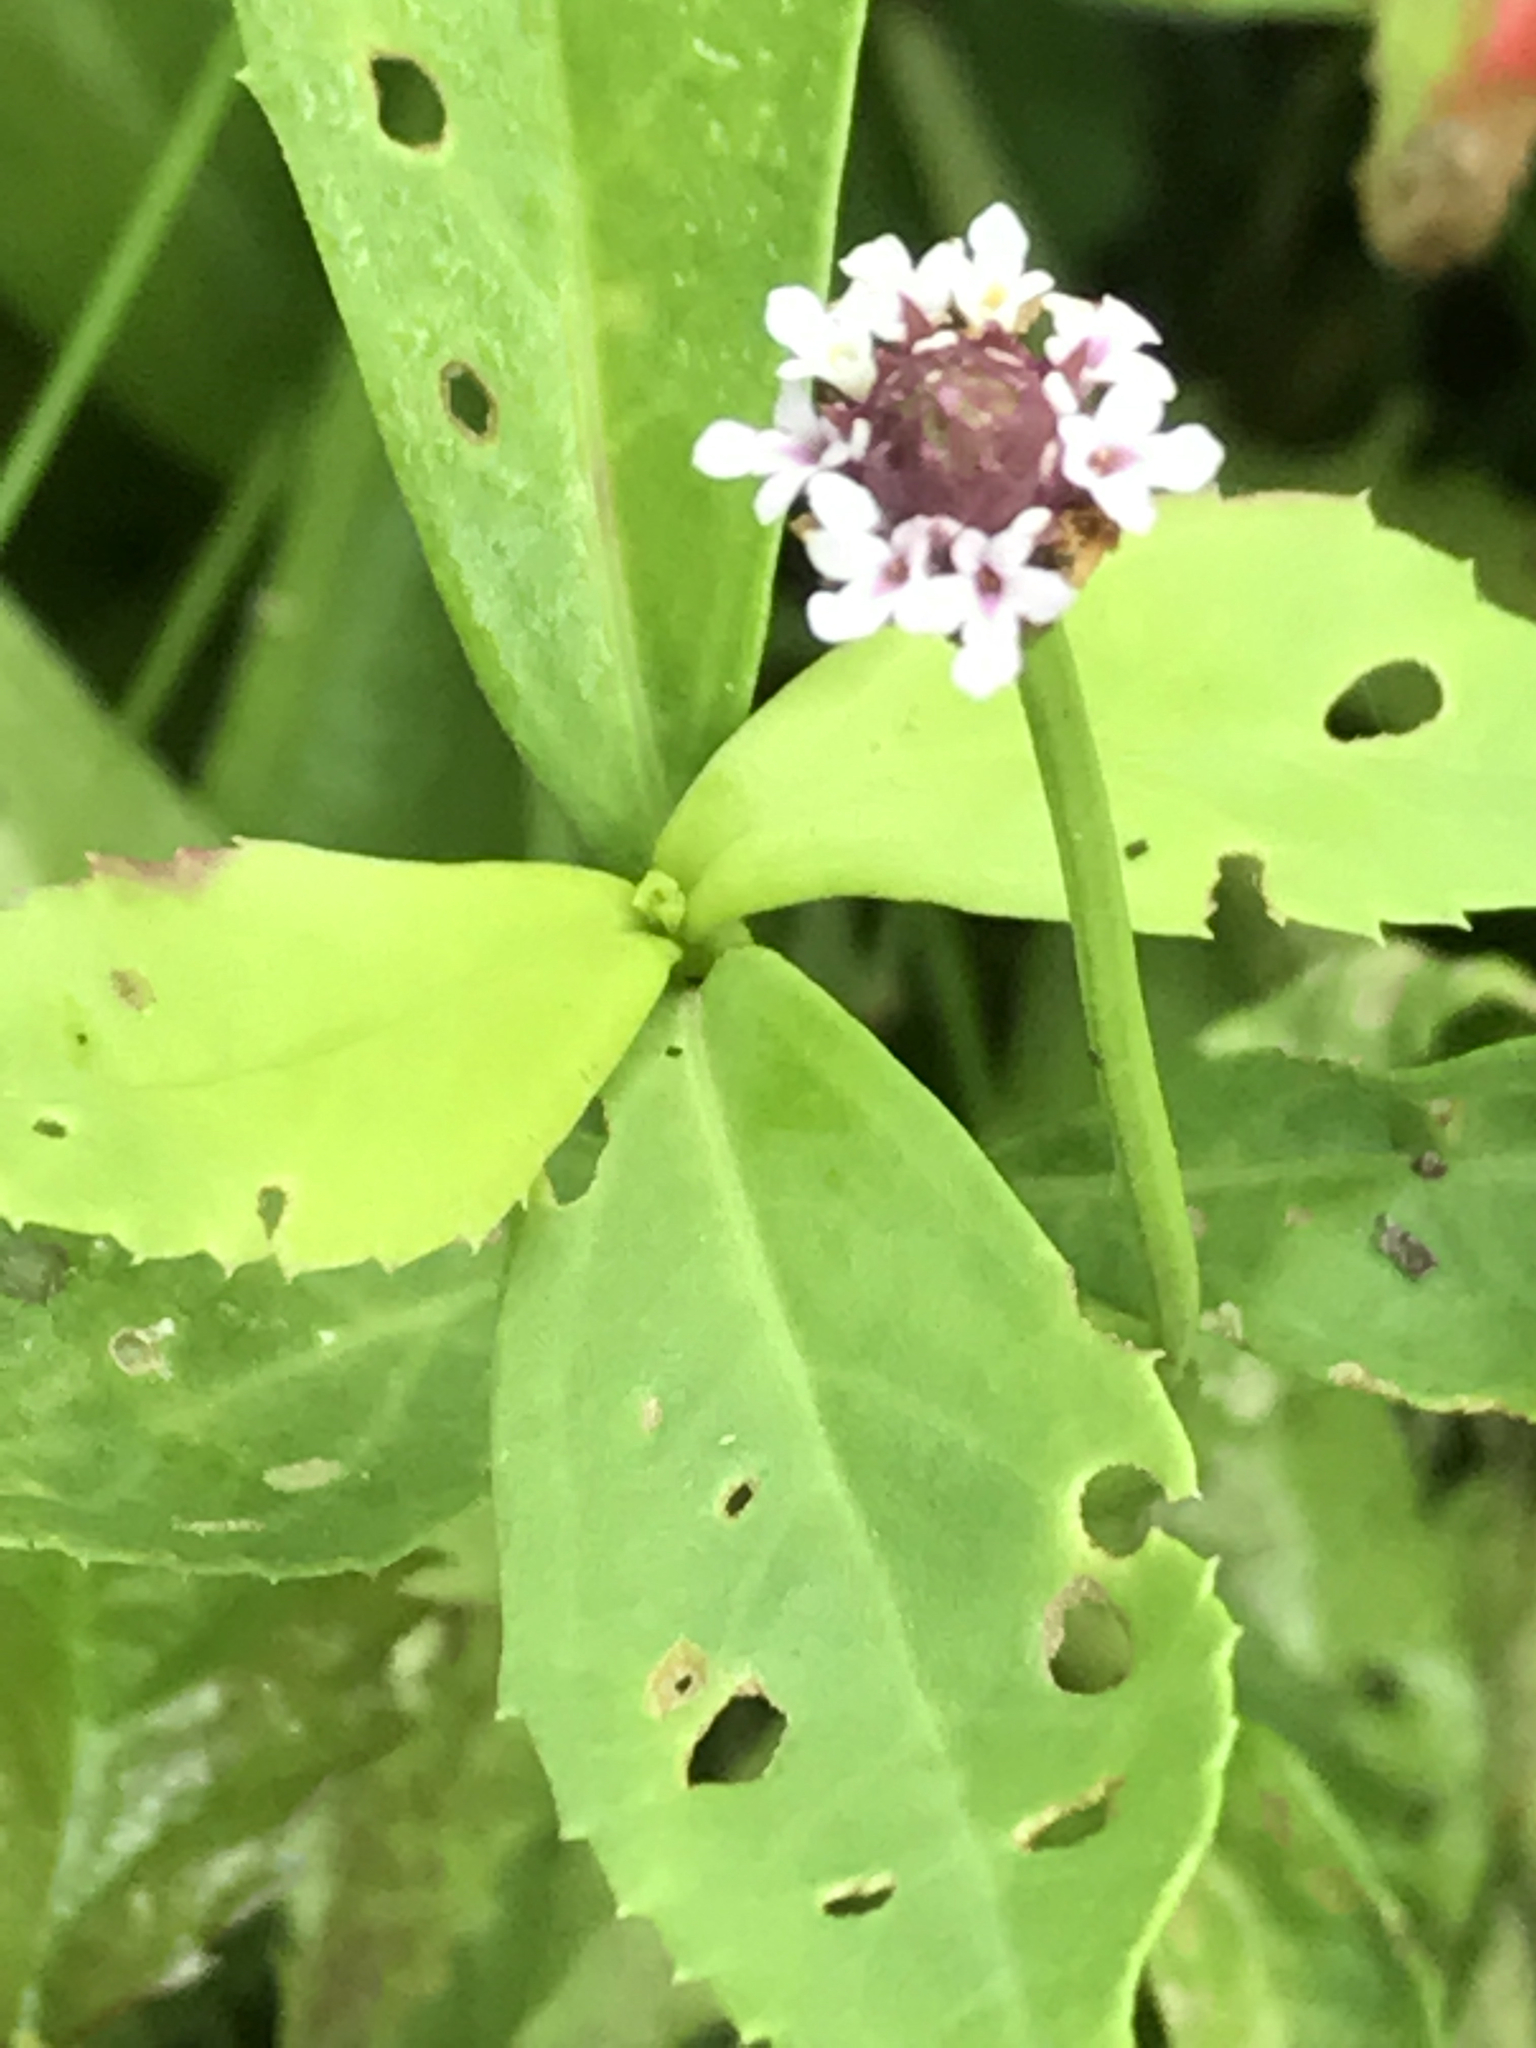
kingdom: Plantae
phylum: Tracheophyta
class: Magnoliopsida
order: Lamiales
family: Verbenaceae
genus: Phyla
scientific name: Phyla nodiflora
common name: Frogfruit
